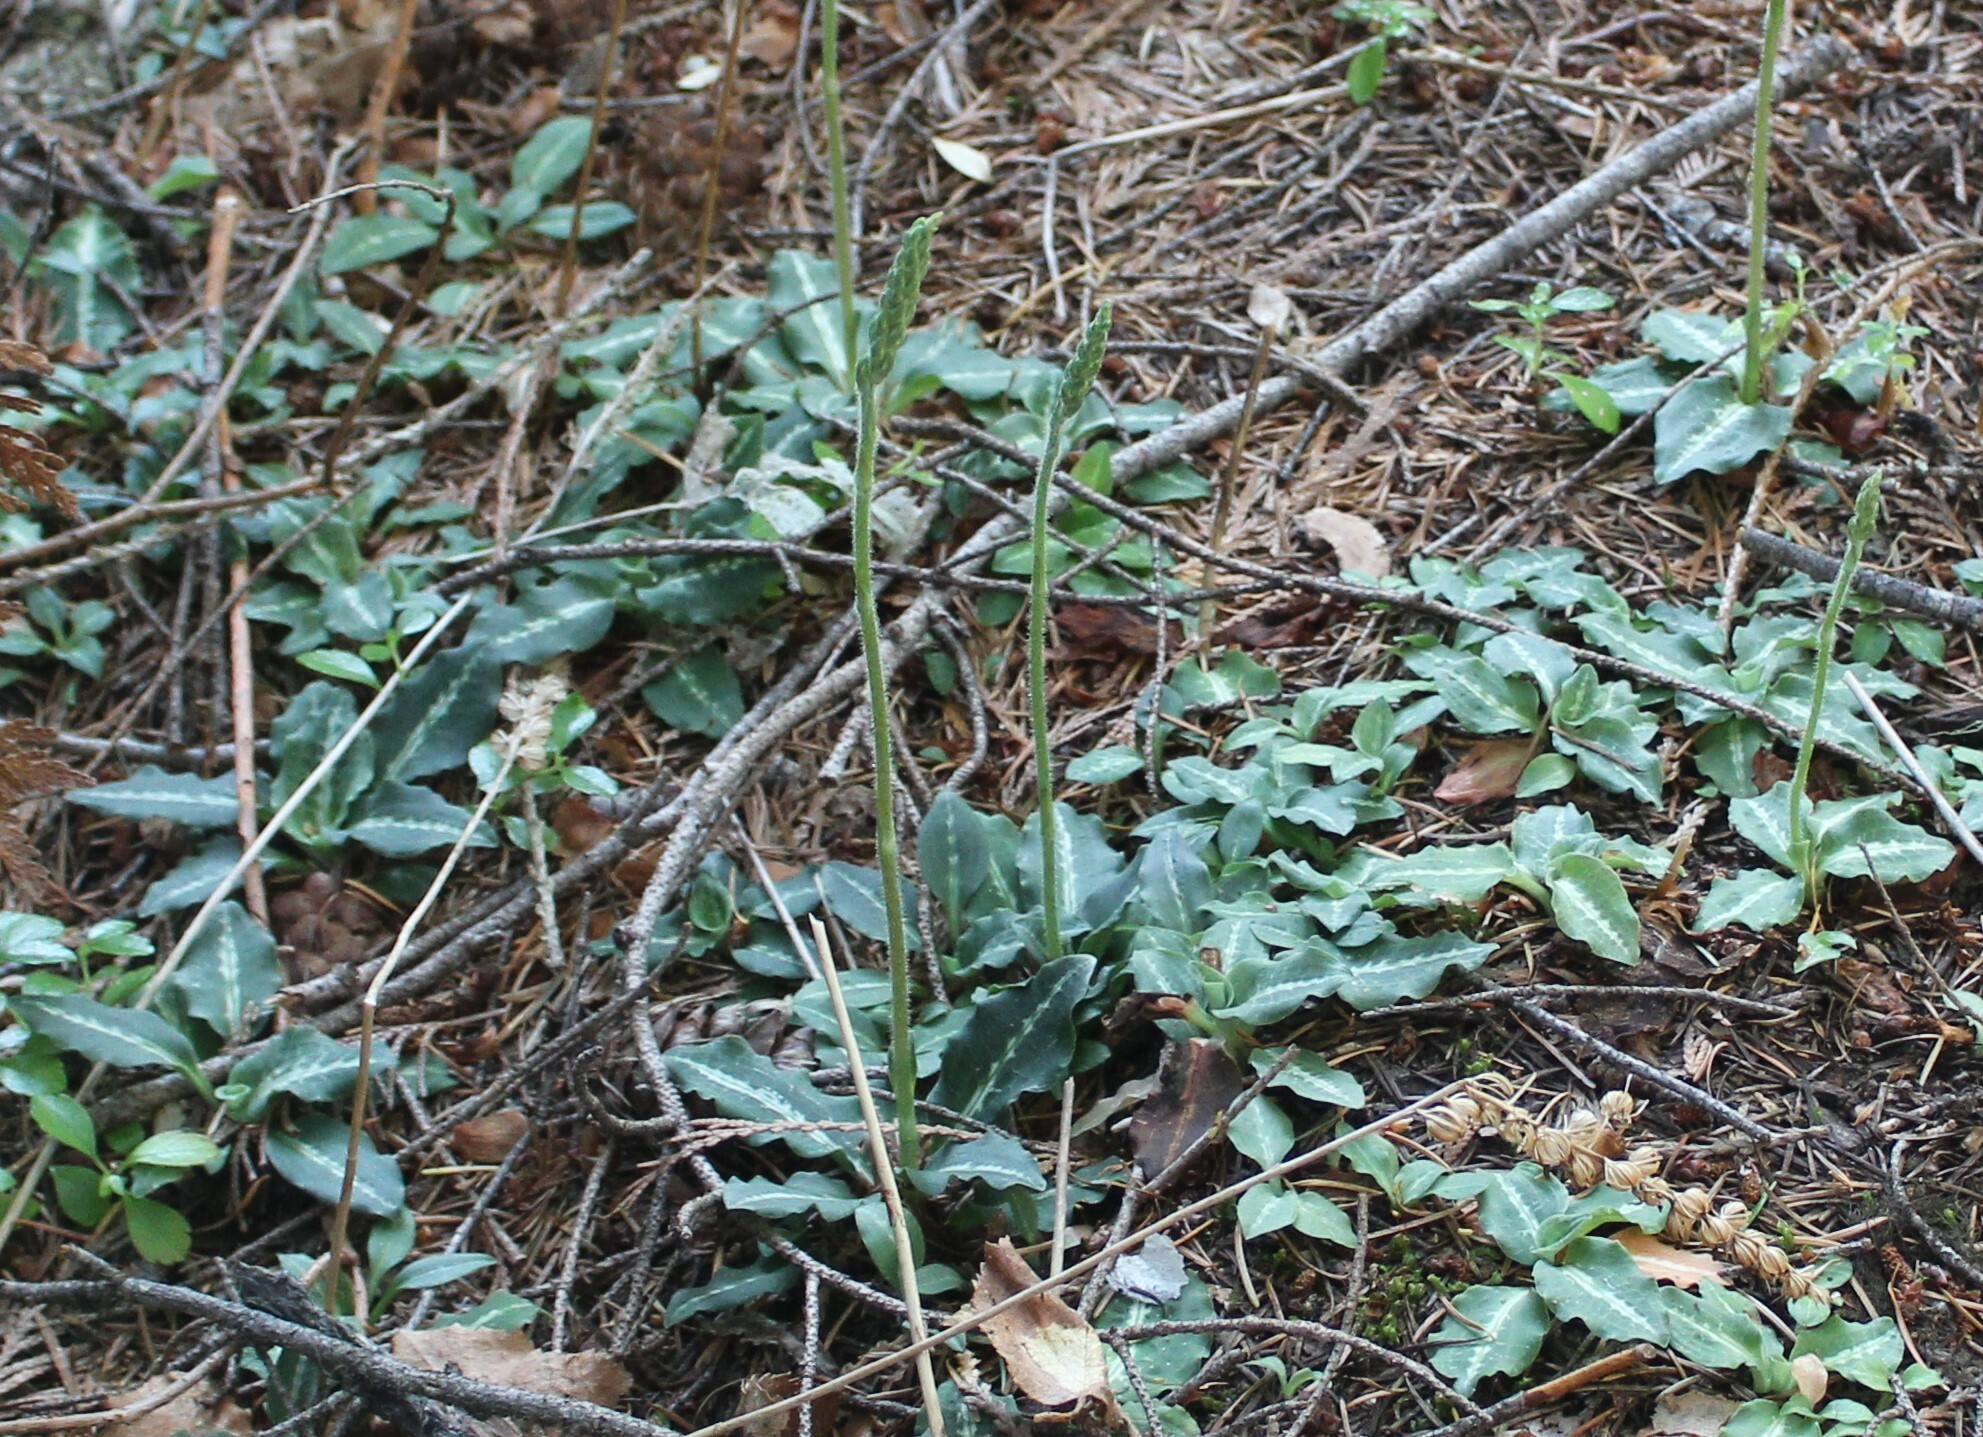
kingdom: Plantae
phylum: Tracheophyta
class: Liliopsida
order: Asparagales
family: Orchidaceae
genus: Goodyera
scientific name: Goodyera oblongifolia
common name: Giant rattlesnake-plantain
